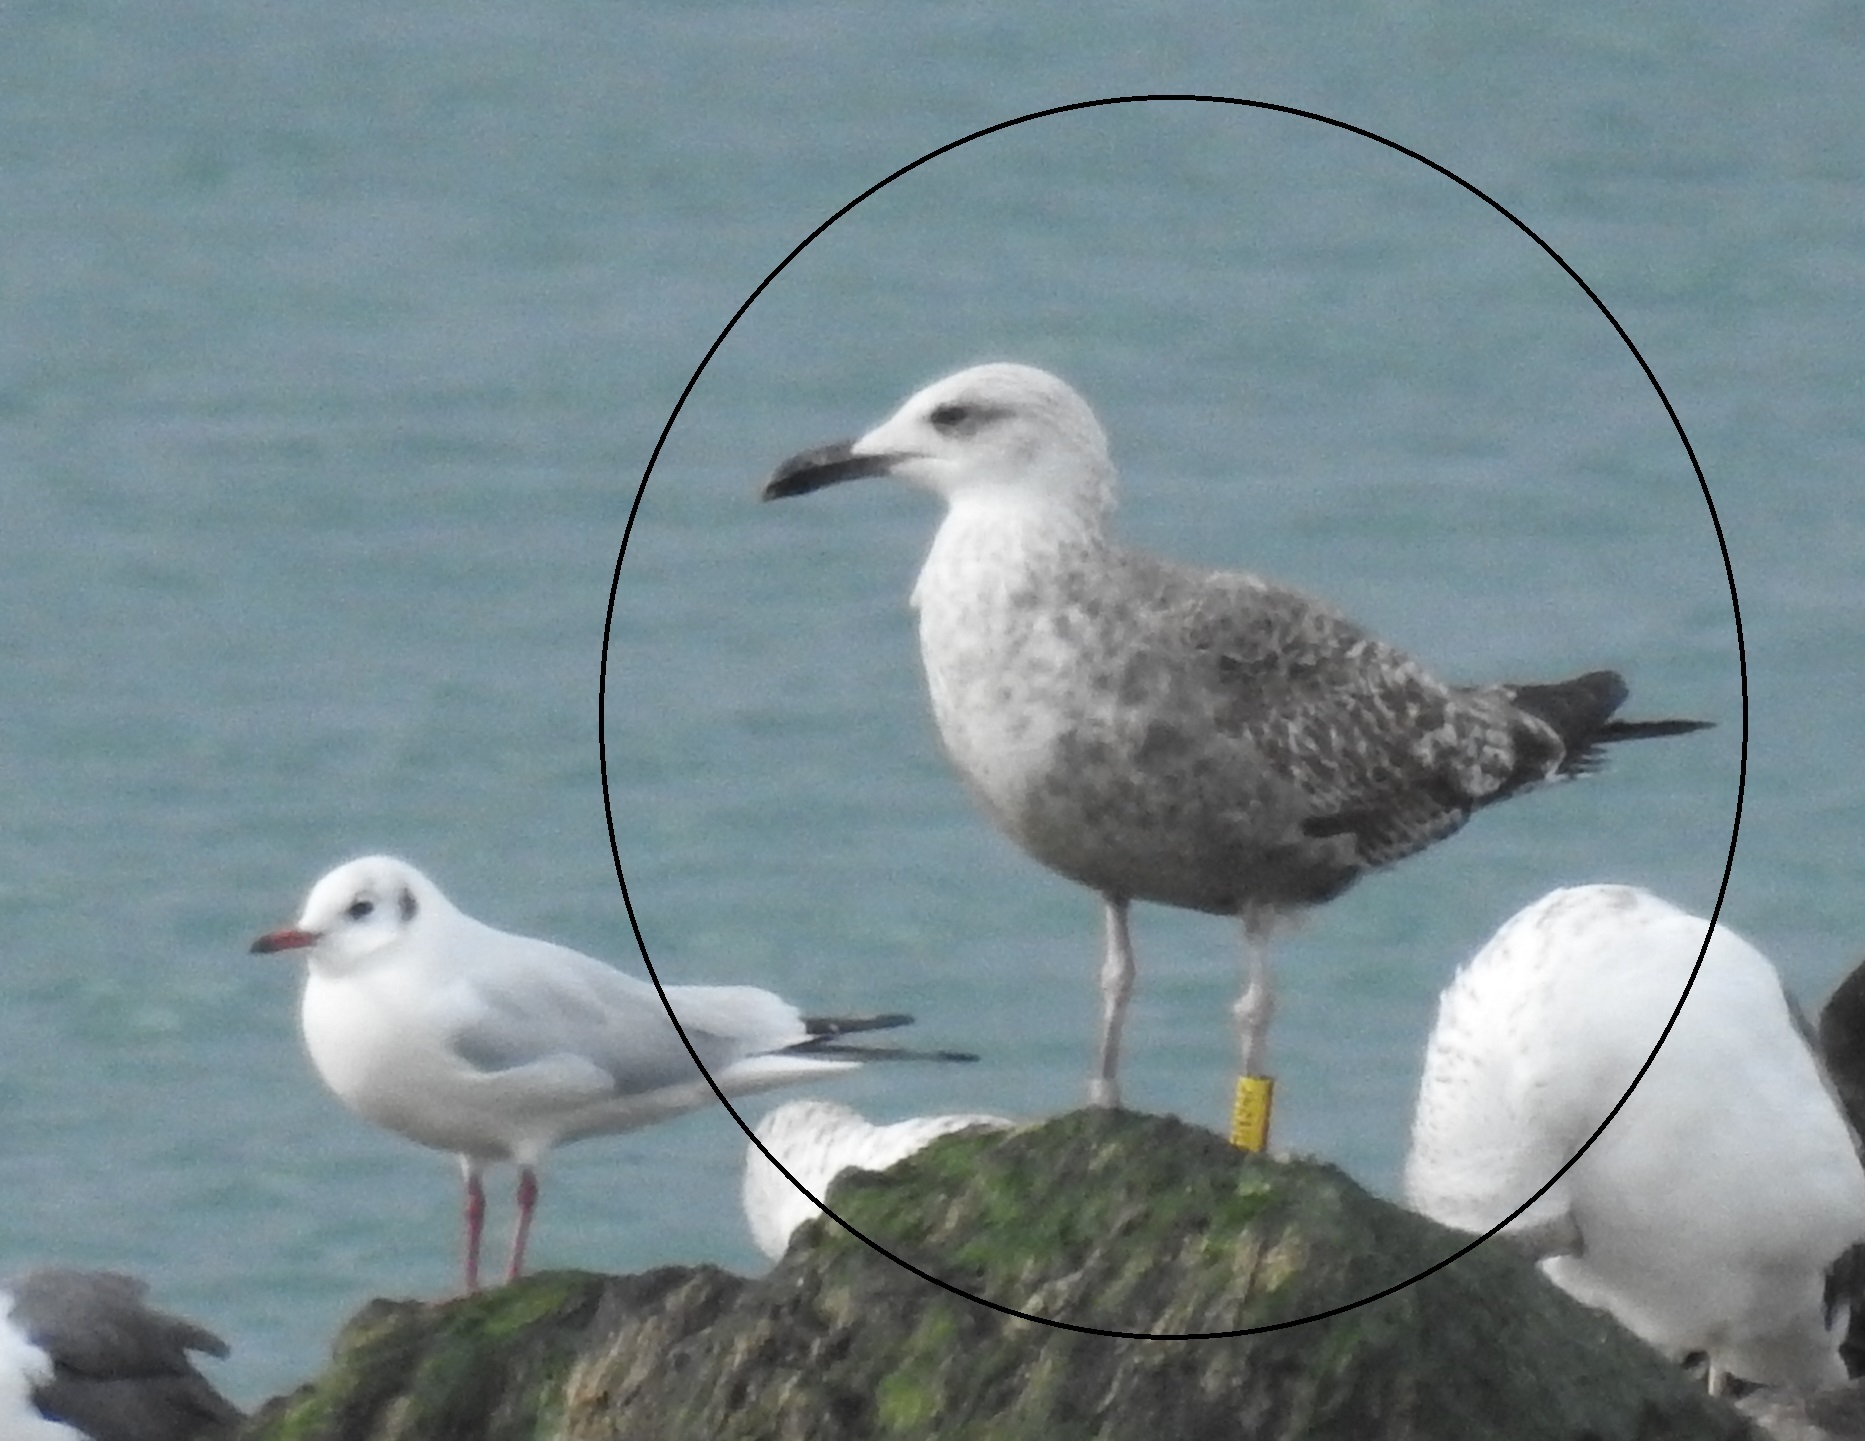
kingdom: Animalia
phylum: Chordata
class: Aves
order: Charadriiformes
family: Laridae
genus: Larus
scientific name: Larus michahellis
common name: Yellow-legged gull
